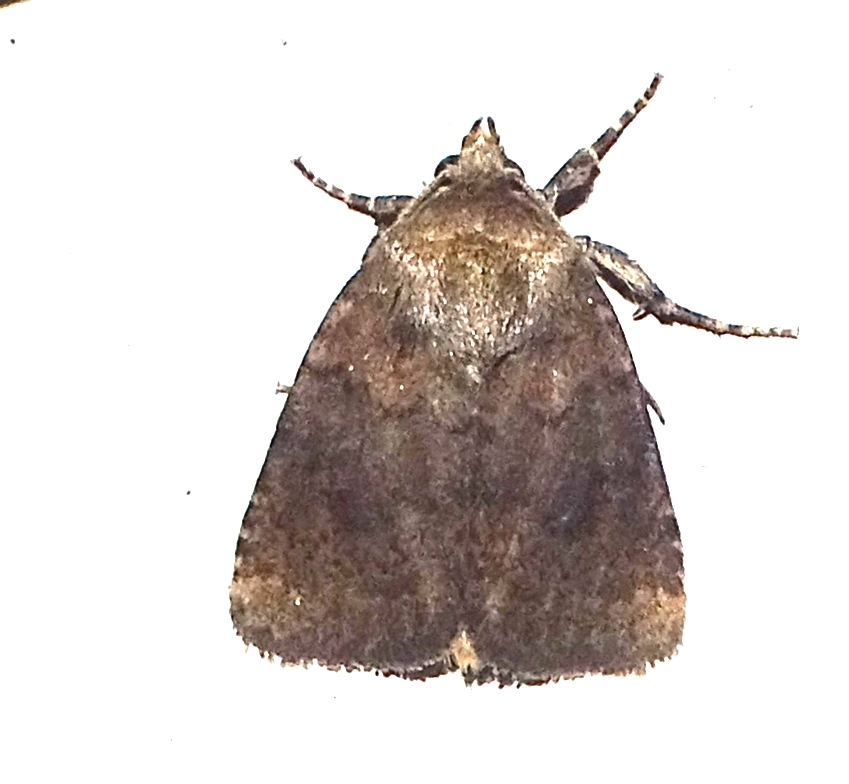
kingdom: Animalia
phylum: Arthropoda
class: Insecta
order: Lepidoptera
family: Noctuidae
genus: Pseudorthodes
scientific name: Pseudorthodes vecors
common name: Small brown quaker
